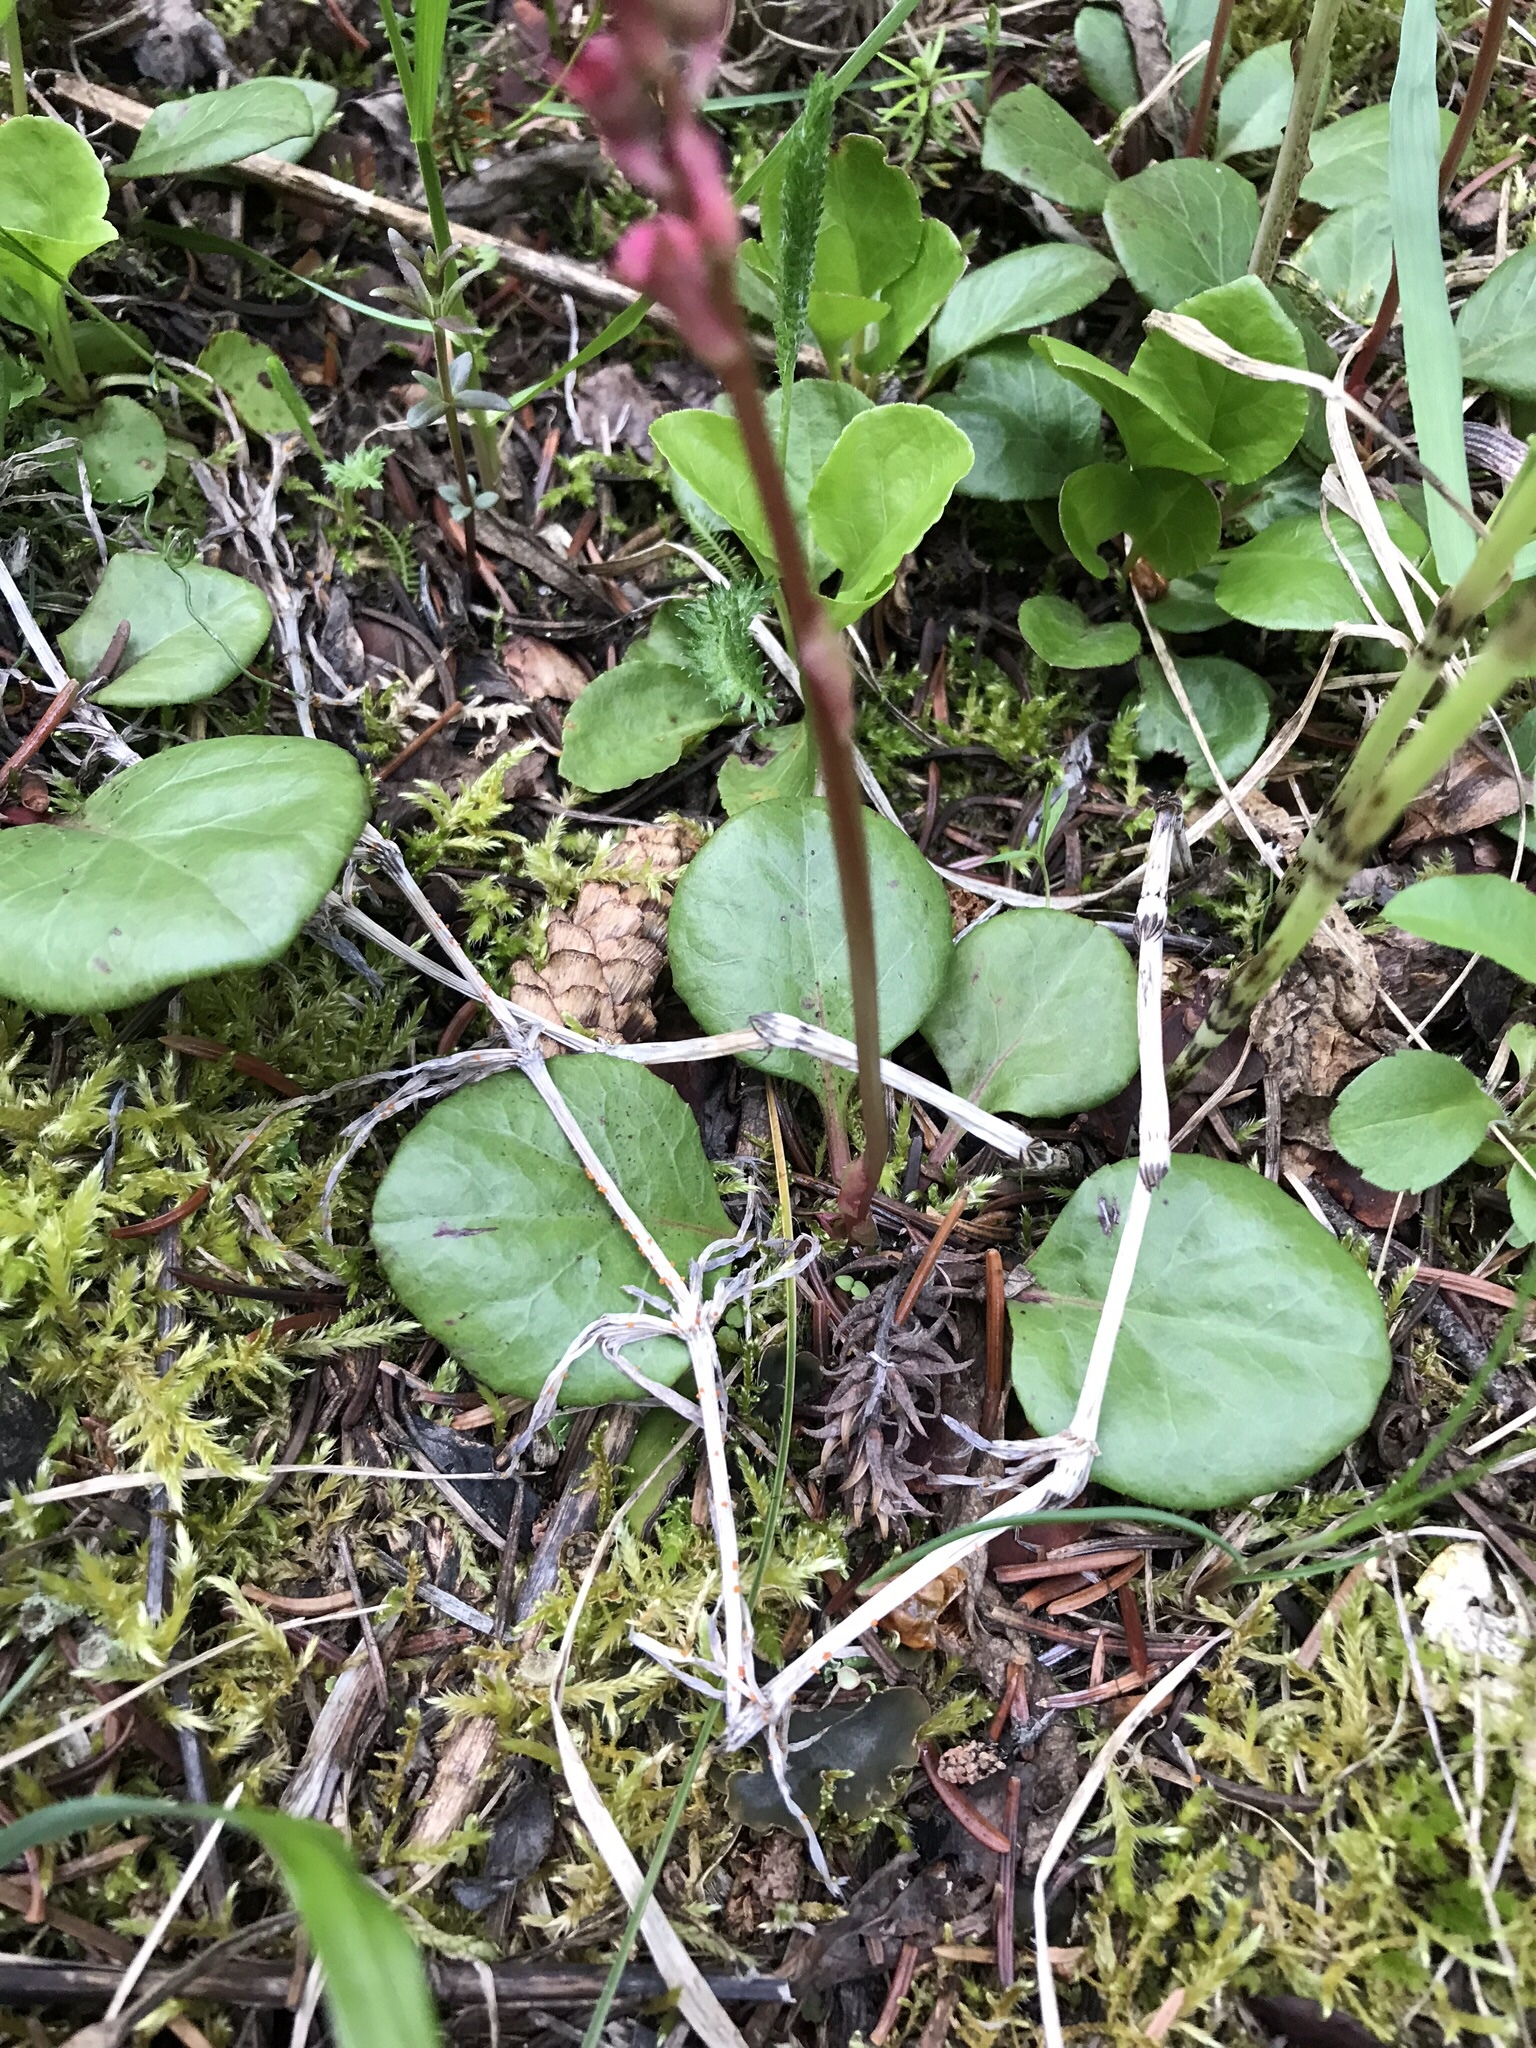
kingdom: Plantae
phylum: Tracheophyta
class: Magnoliopsida
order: Ericales
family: Ericaceae
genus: Pyrola
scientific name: Pyrola asarifolia
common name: Bog wintergreen
